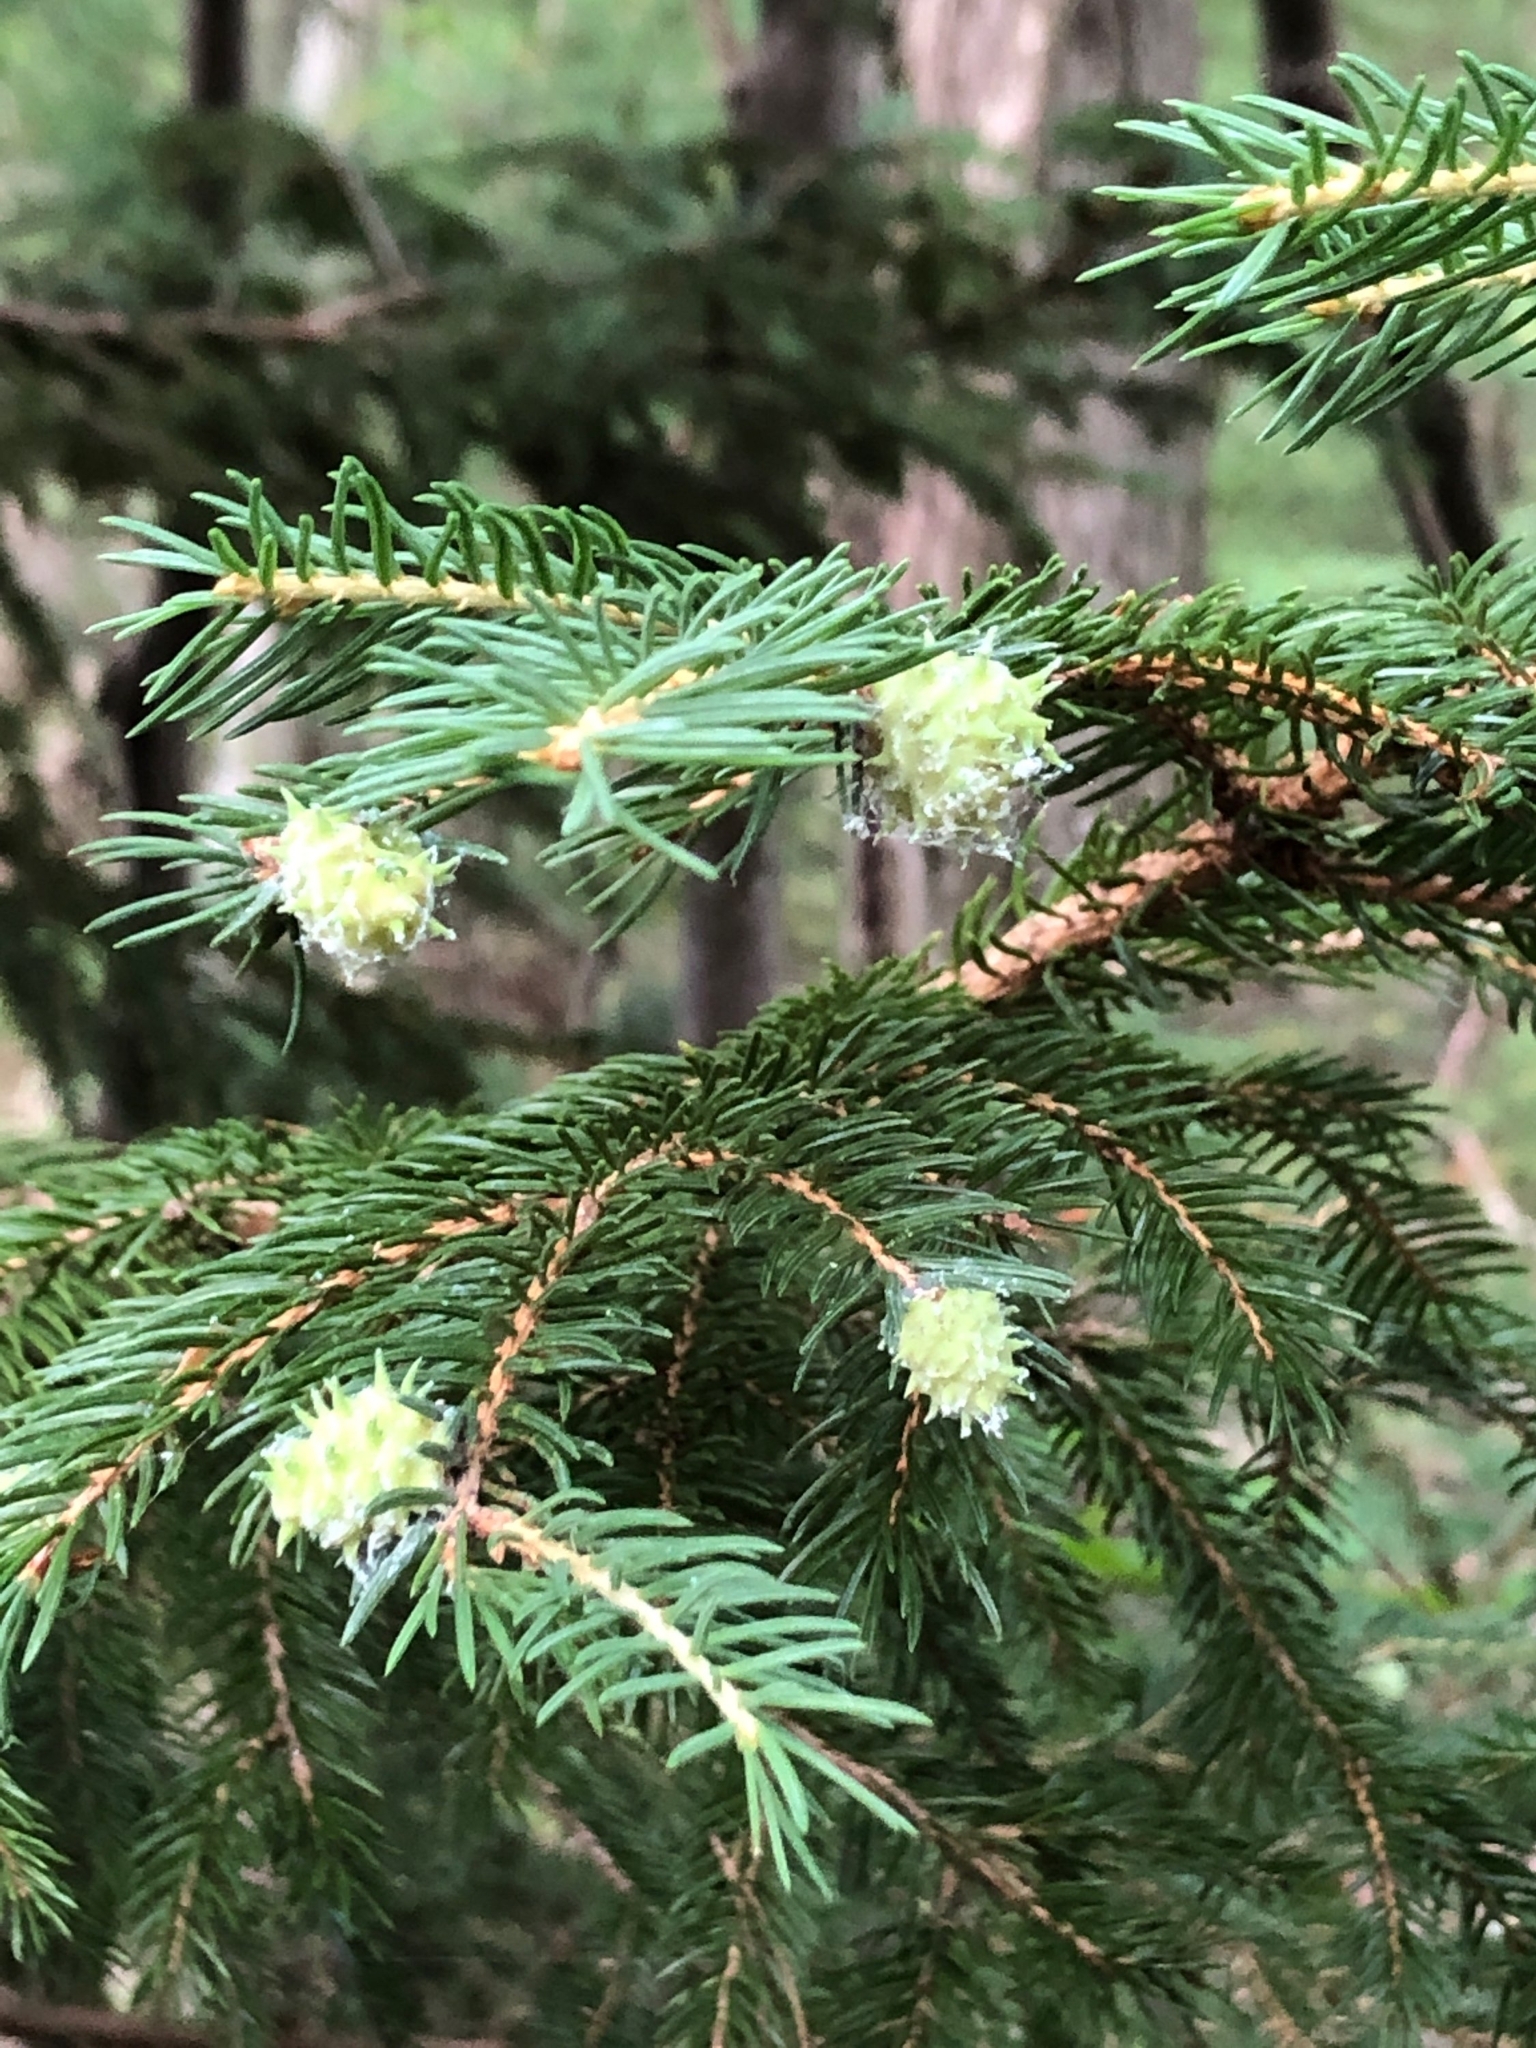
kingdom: Animalia
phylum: Arthropoda
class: Insecta
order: Hemiptera
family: Adelgidae
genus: Adelges
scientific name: Adelges abietis
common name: Eastern spruce gall adelgid
